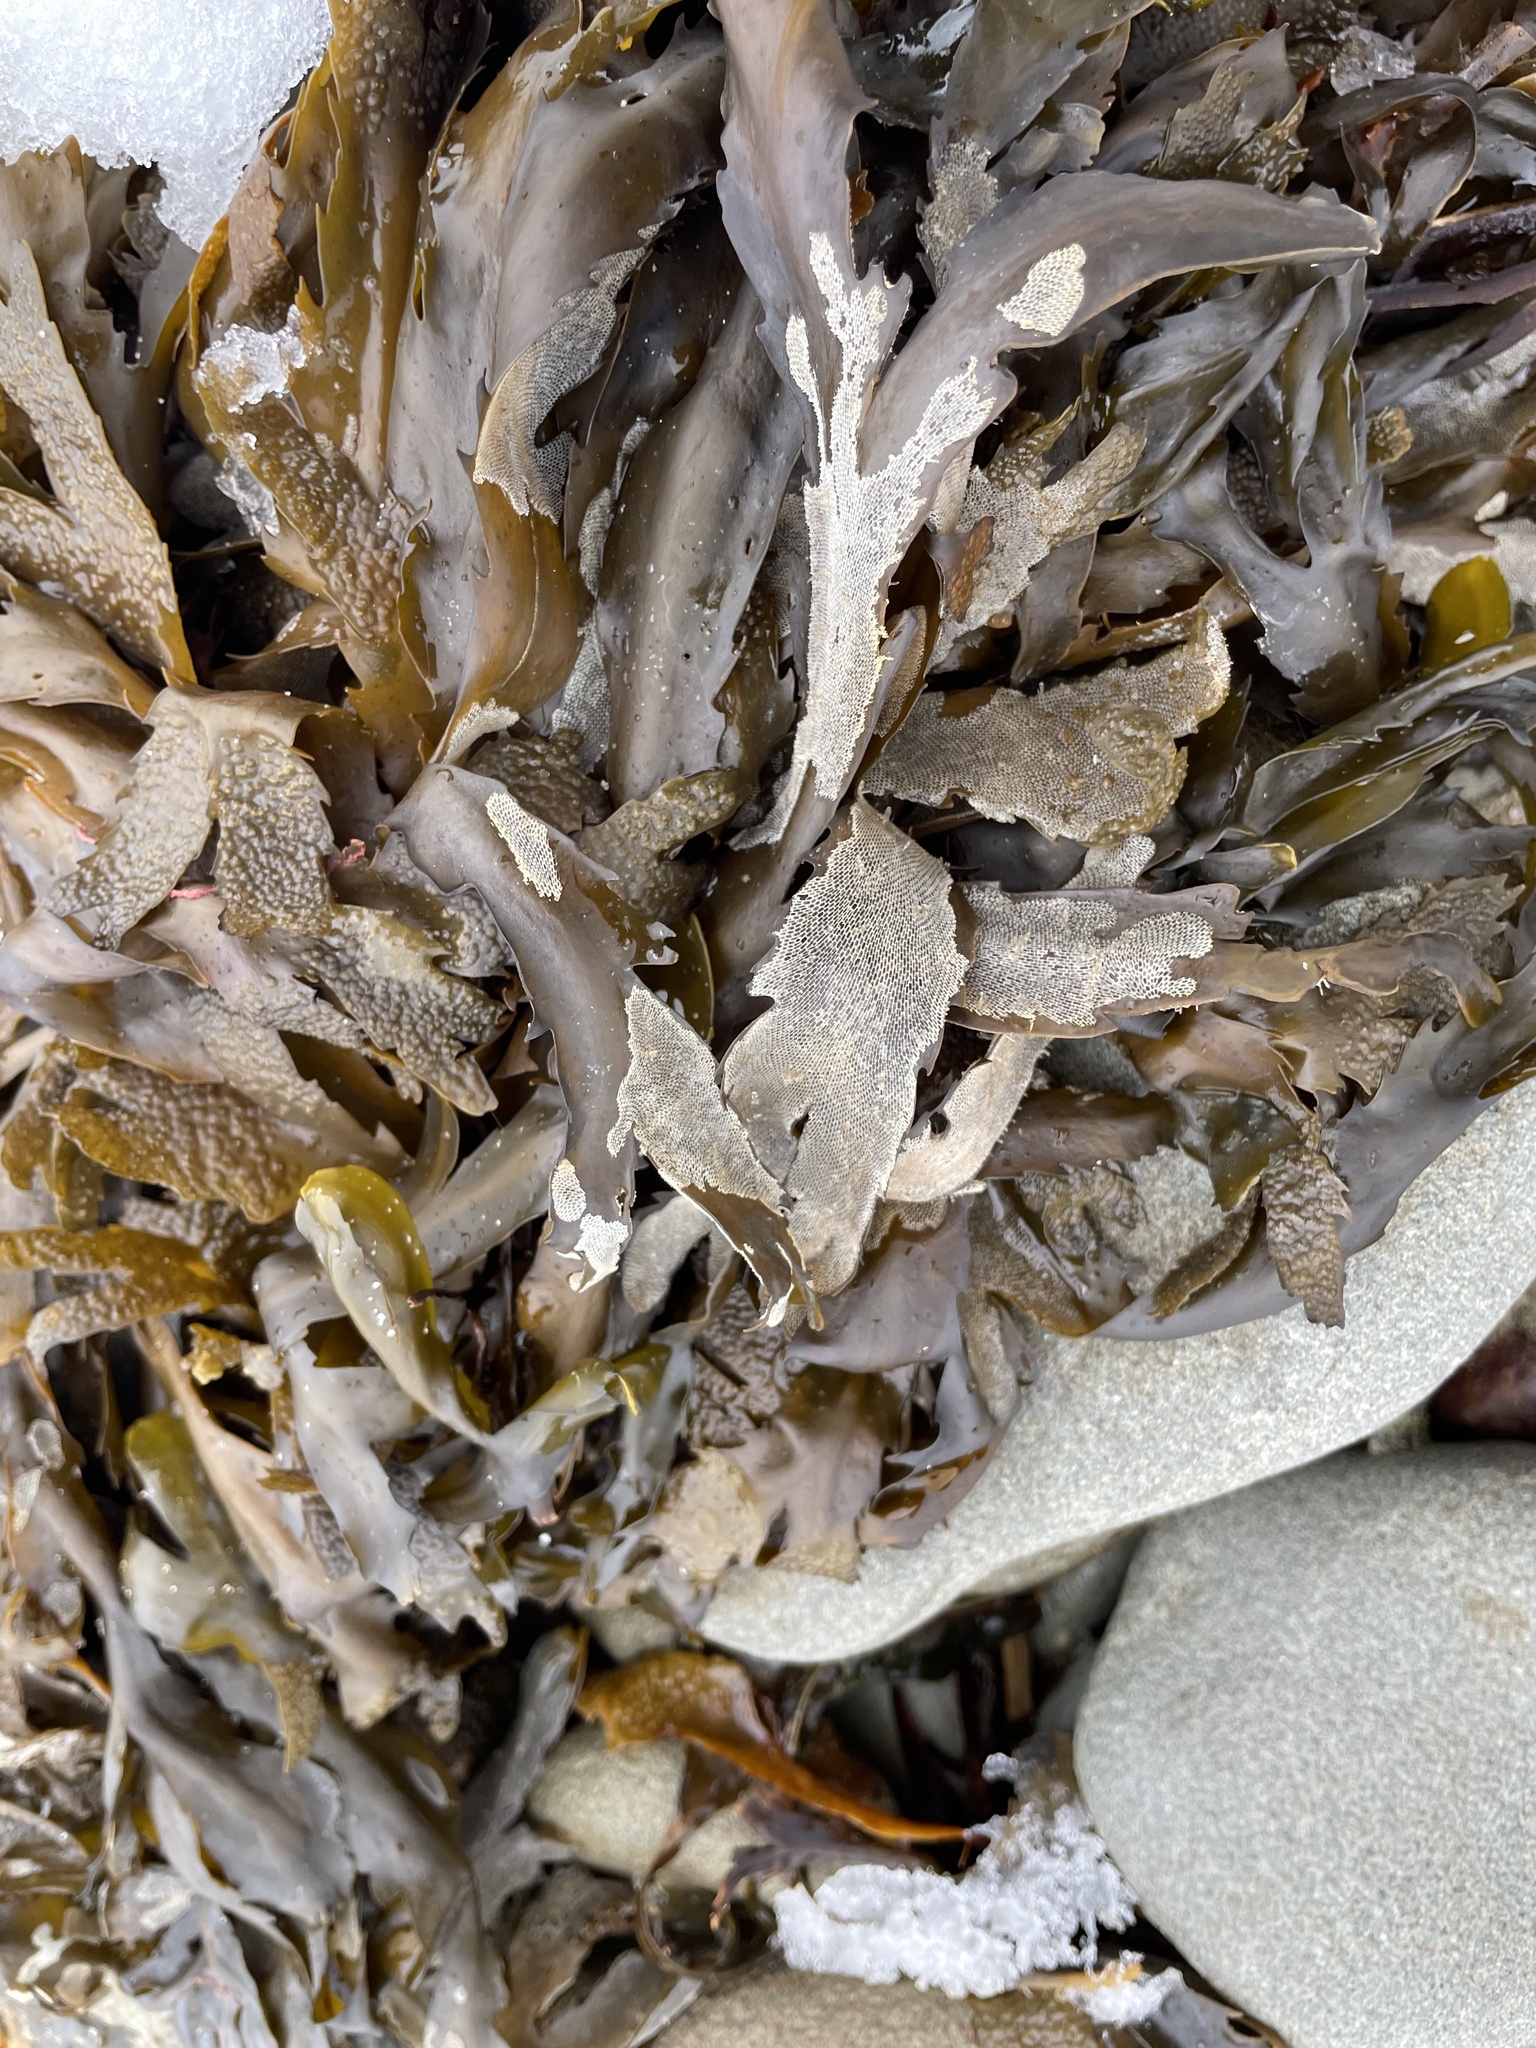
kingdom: Animalia
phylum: Bryozoa
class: Gymnolaemata
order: Cheilostomatida
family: Membraniporidae
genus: Membranipora
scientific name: Membranipora membranacea
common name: Sea mat
